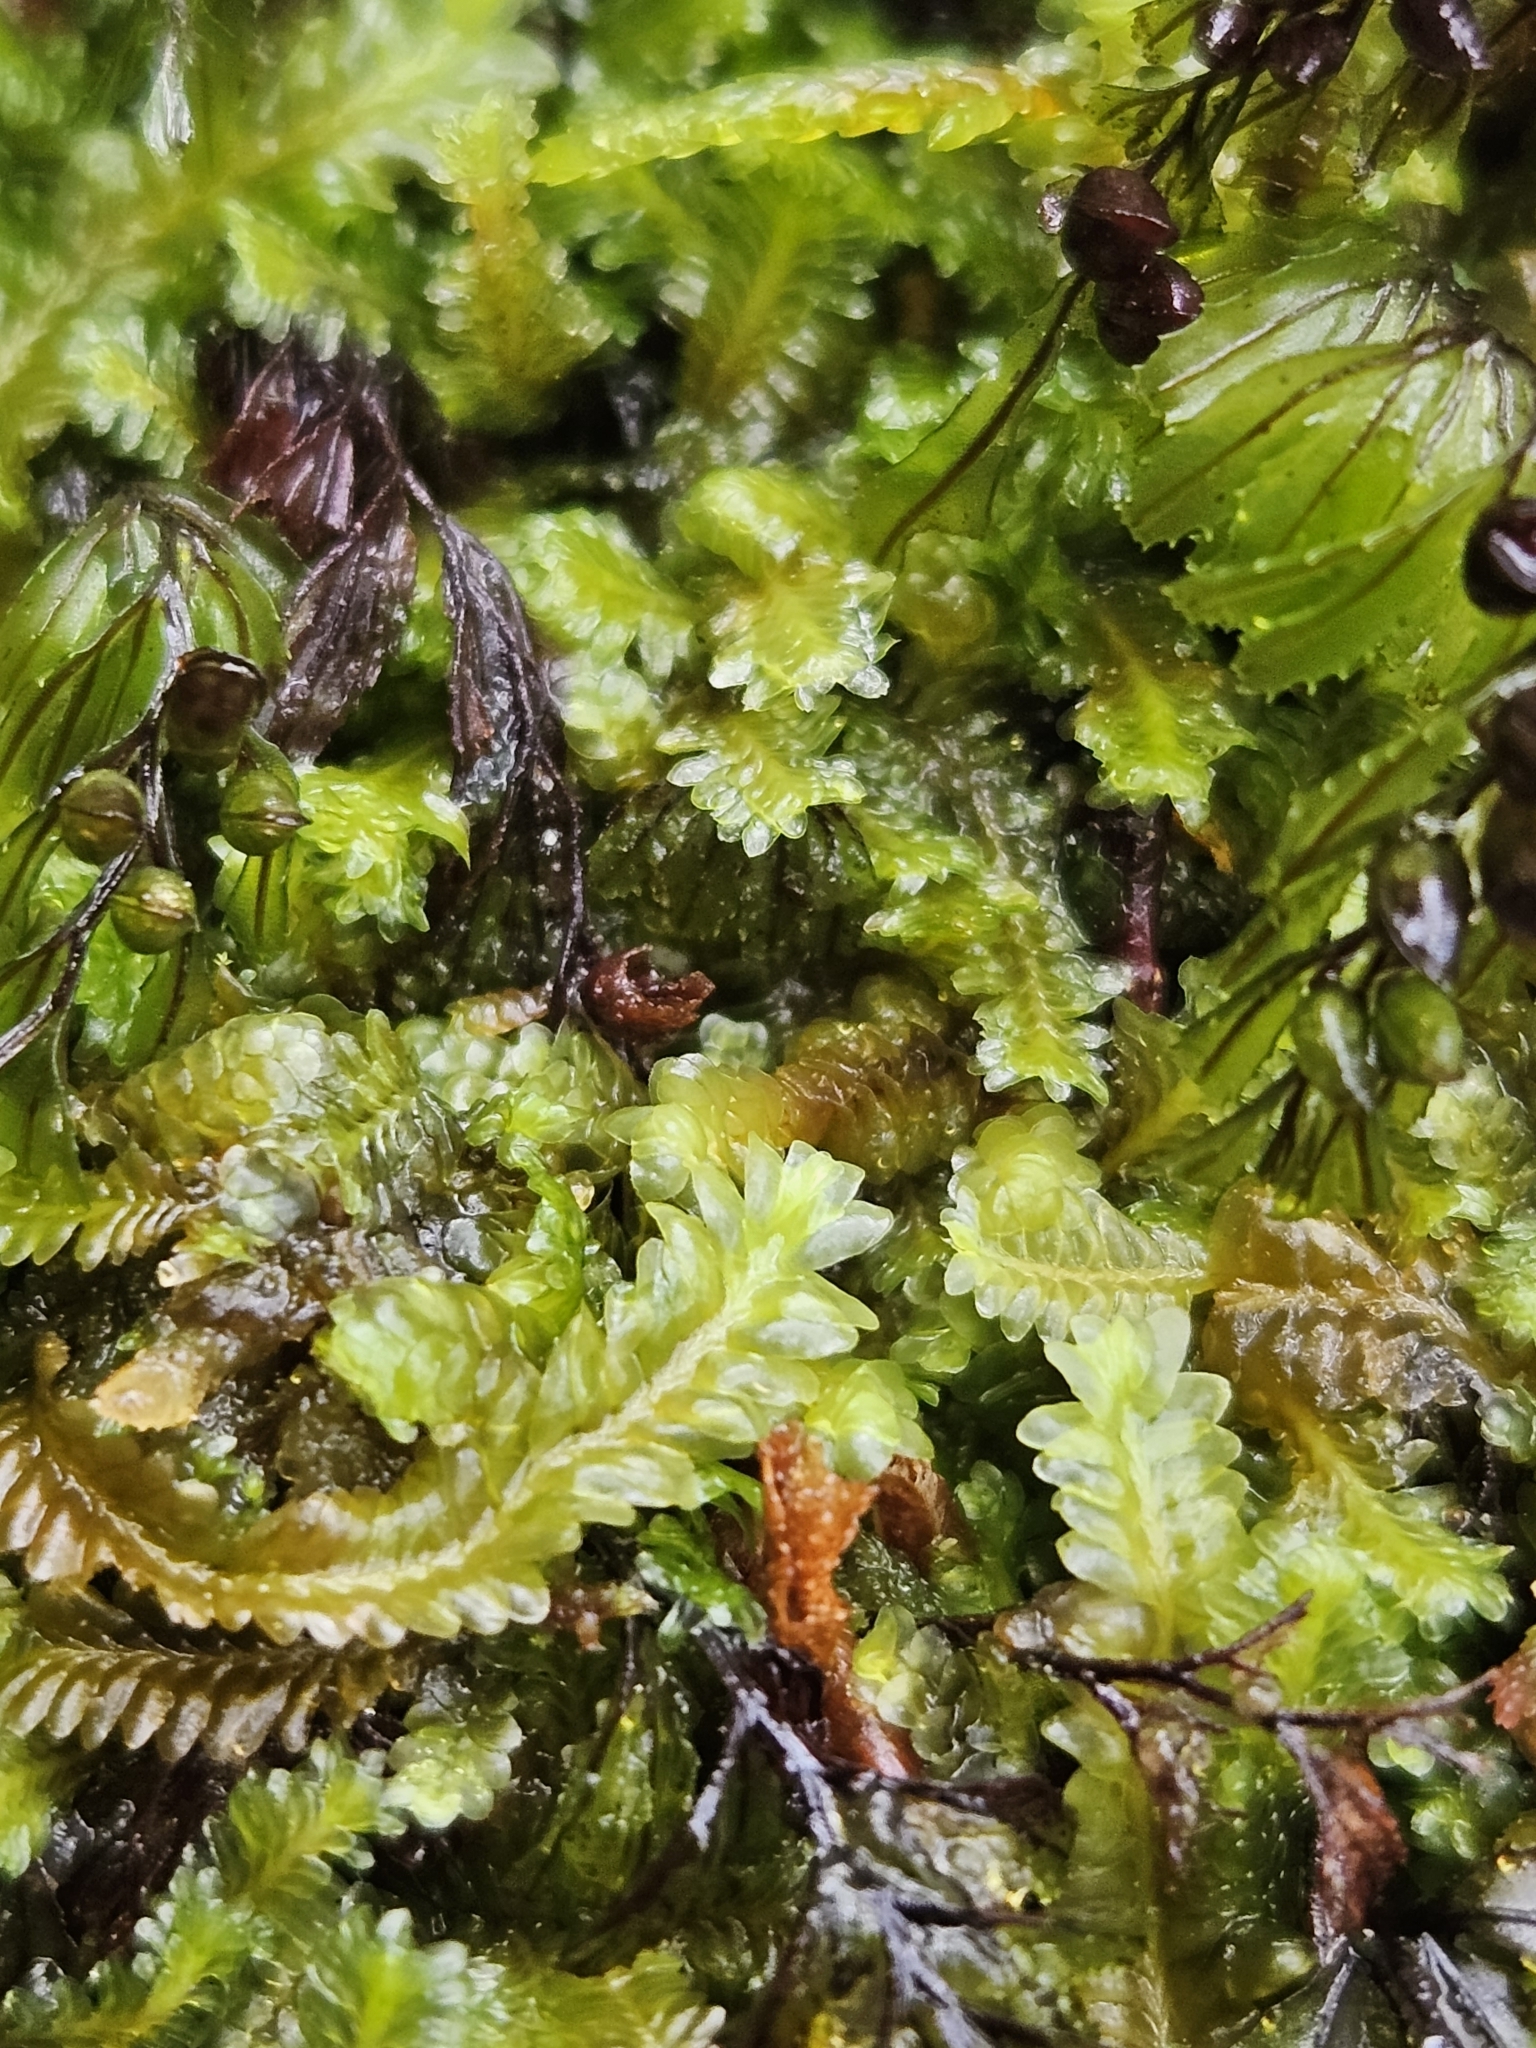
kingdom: Plantae
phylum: Marchantiophyta
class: Jungermanniopsida
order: Jungermanniales
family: Saccogynaceae
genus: Saccogyna
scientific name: Saccogyna viticulosa
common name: Straggling pouchwort
